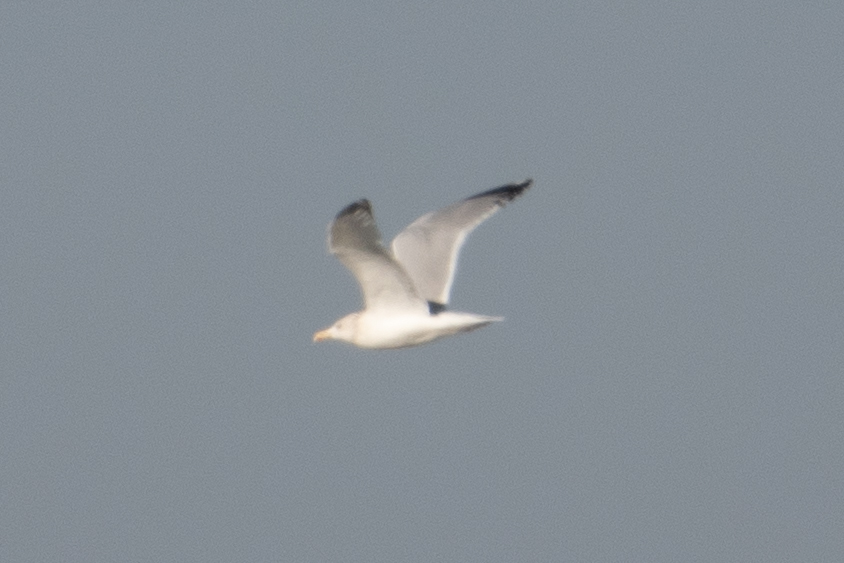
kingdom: Animalia
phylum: Chordata
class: Aves
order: Charadriiformes
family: Laridae
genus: Larus
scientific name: Larus argentatus
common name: Herring gull
